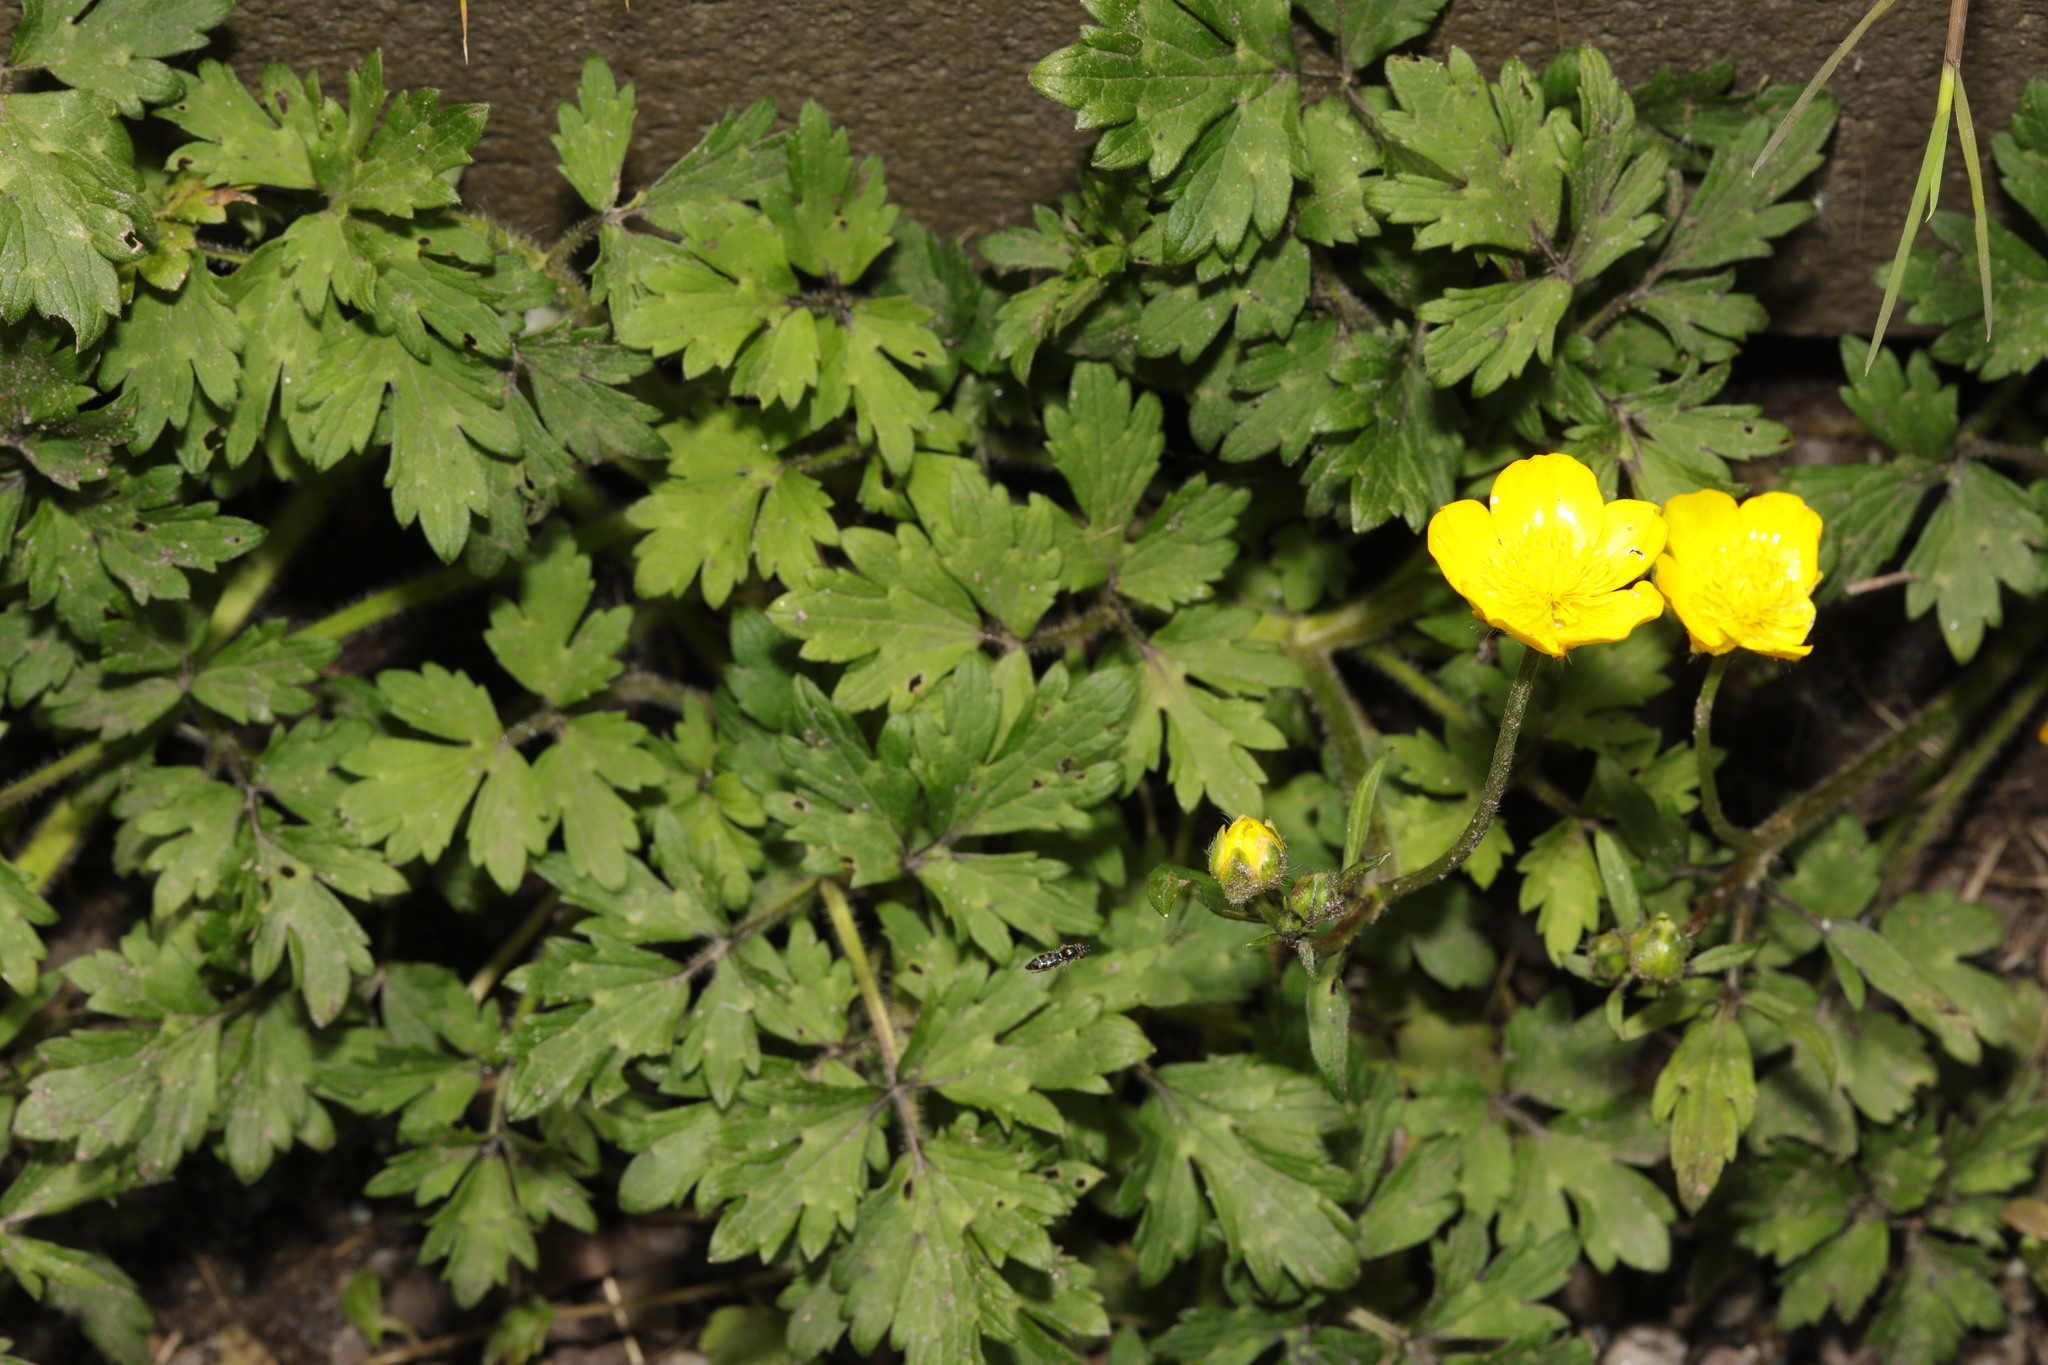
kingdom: Plantae
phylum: Tracheophyta
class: Magnoliopsida
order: Ranunculales
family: Ranunculaceae
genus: Ranunculus
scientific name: Ranunculus repens
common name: Creeping buttercup
